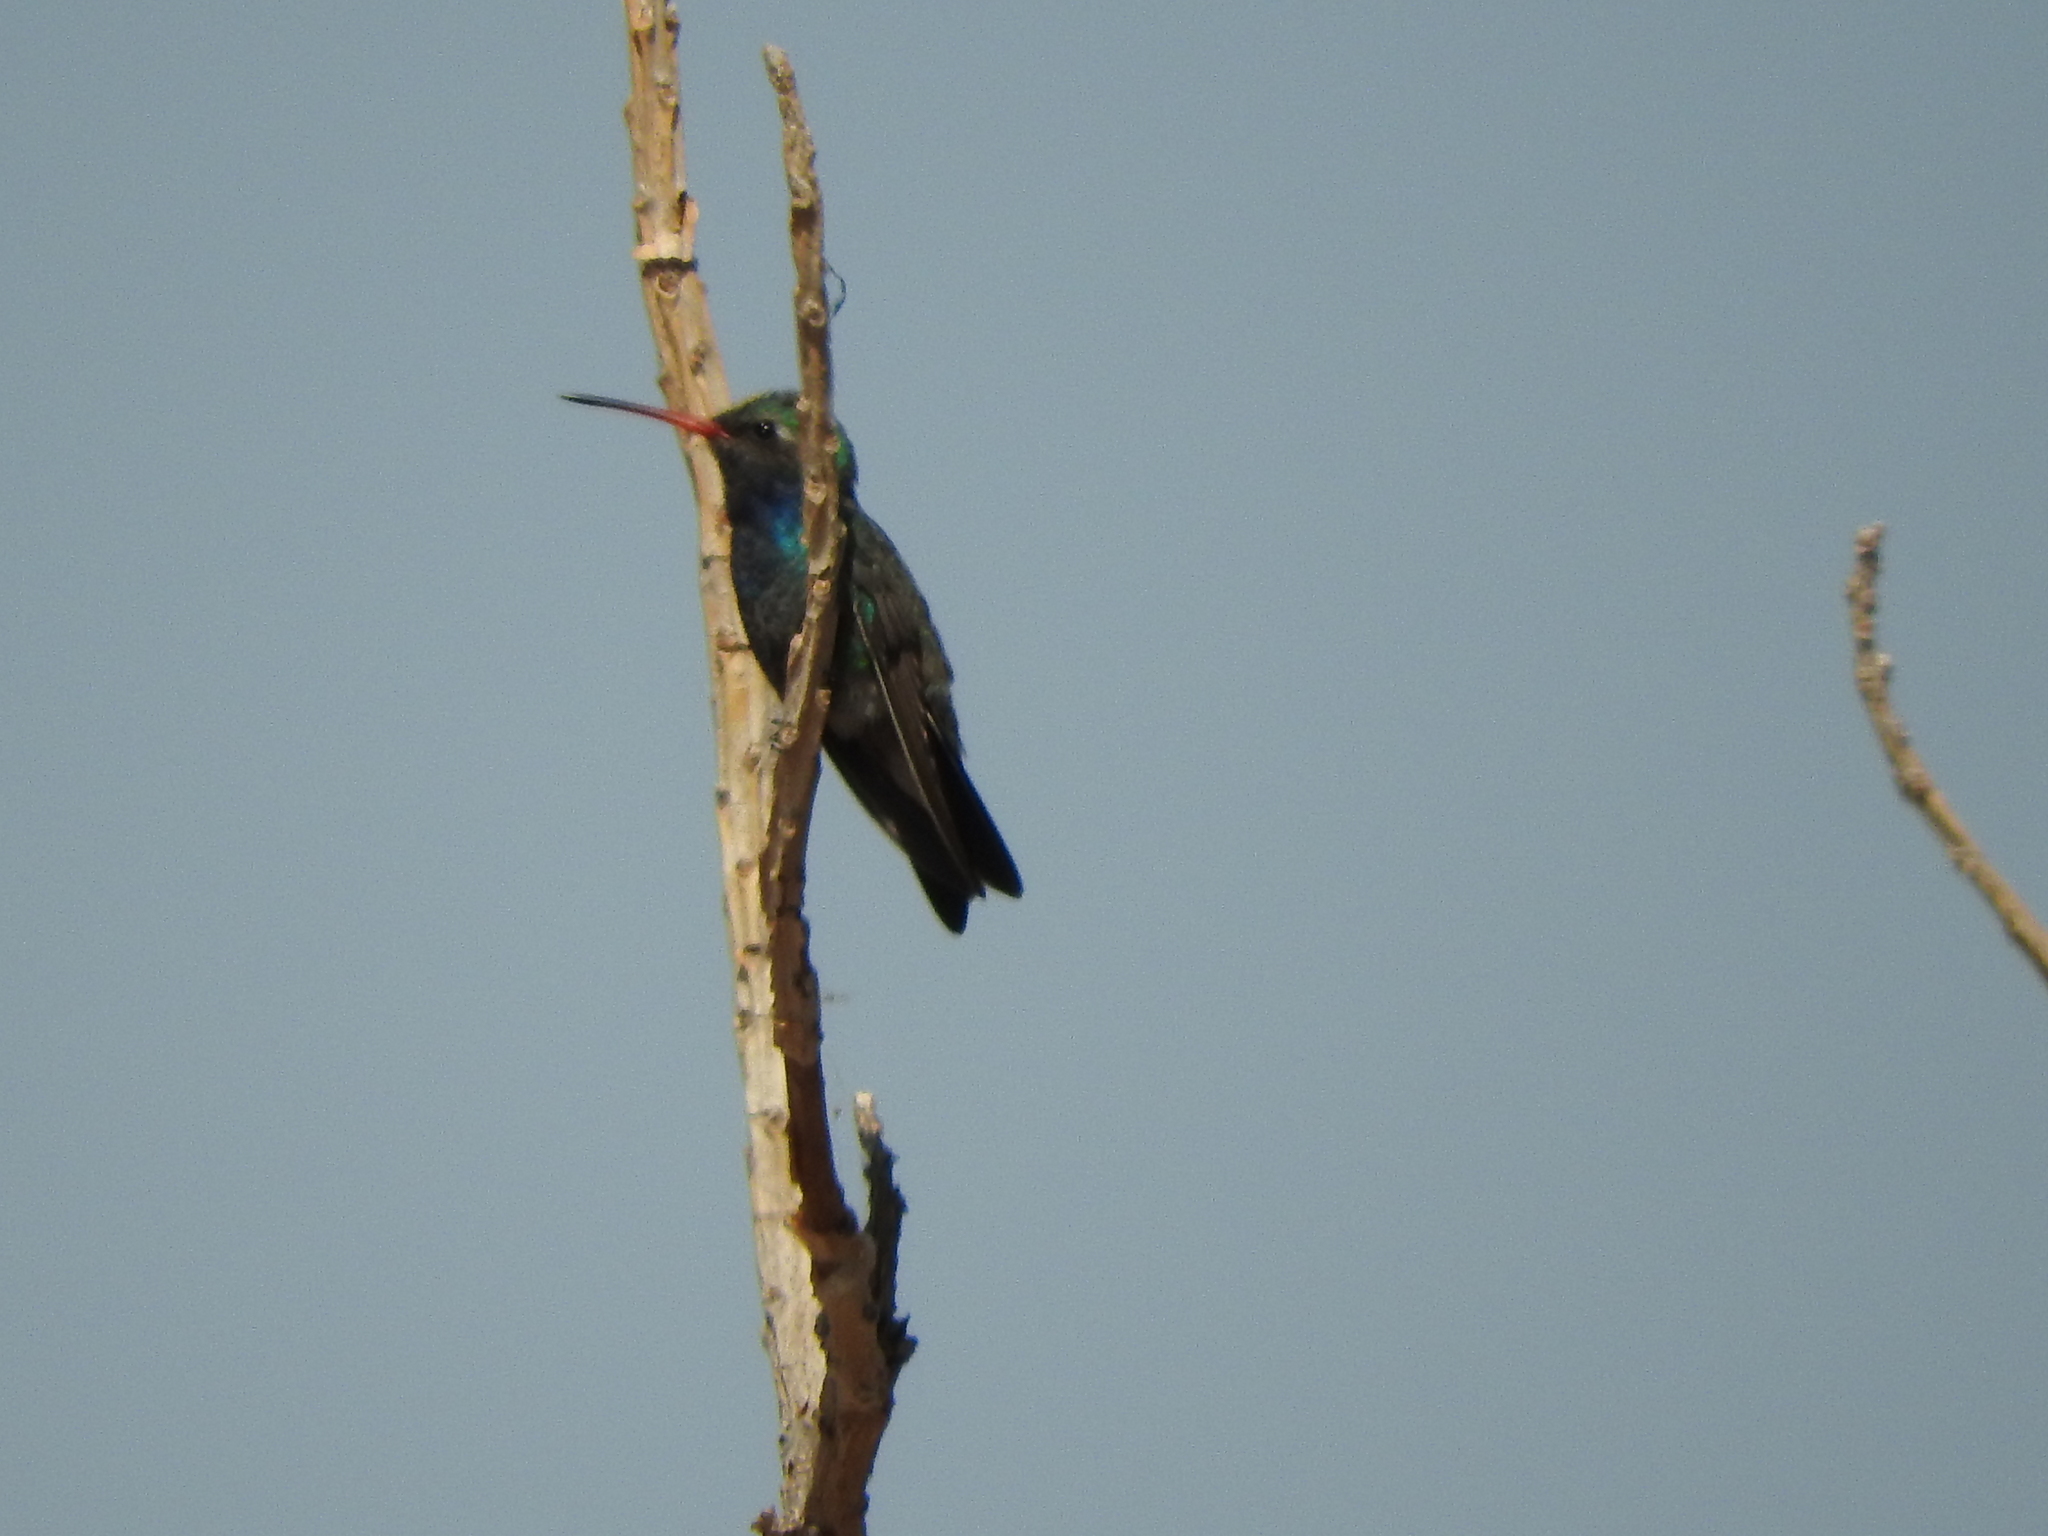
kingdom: Animalia
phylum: Chordata
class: Aves
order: Apodiformes
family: Trochilidae
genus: Cynanthus
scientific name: Cynanthus latirostris
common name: Broad-billed hummingbird
